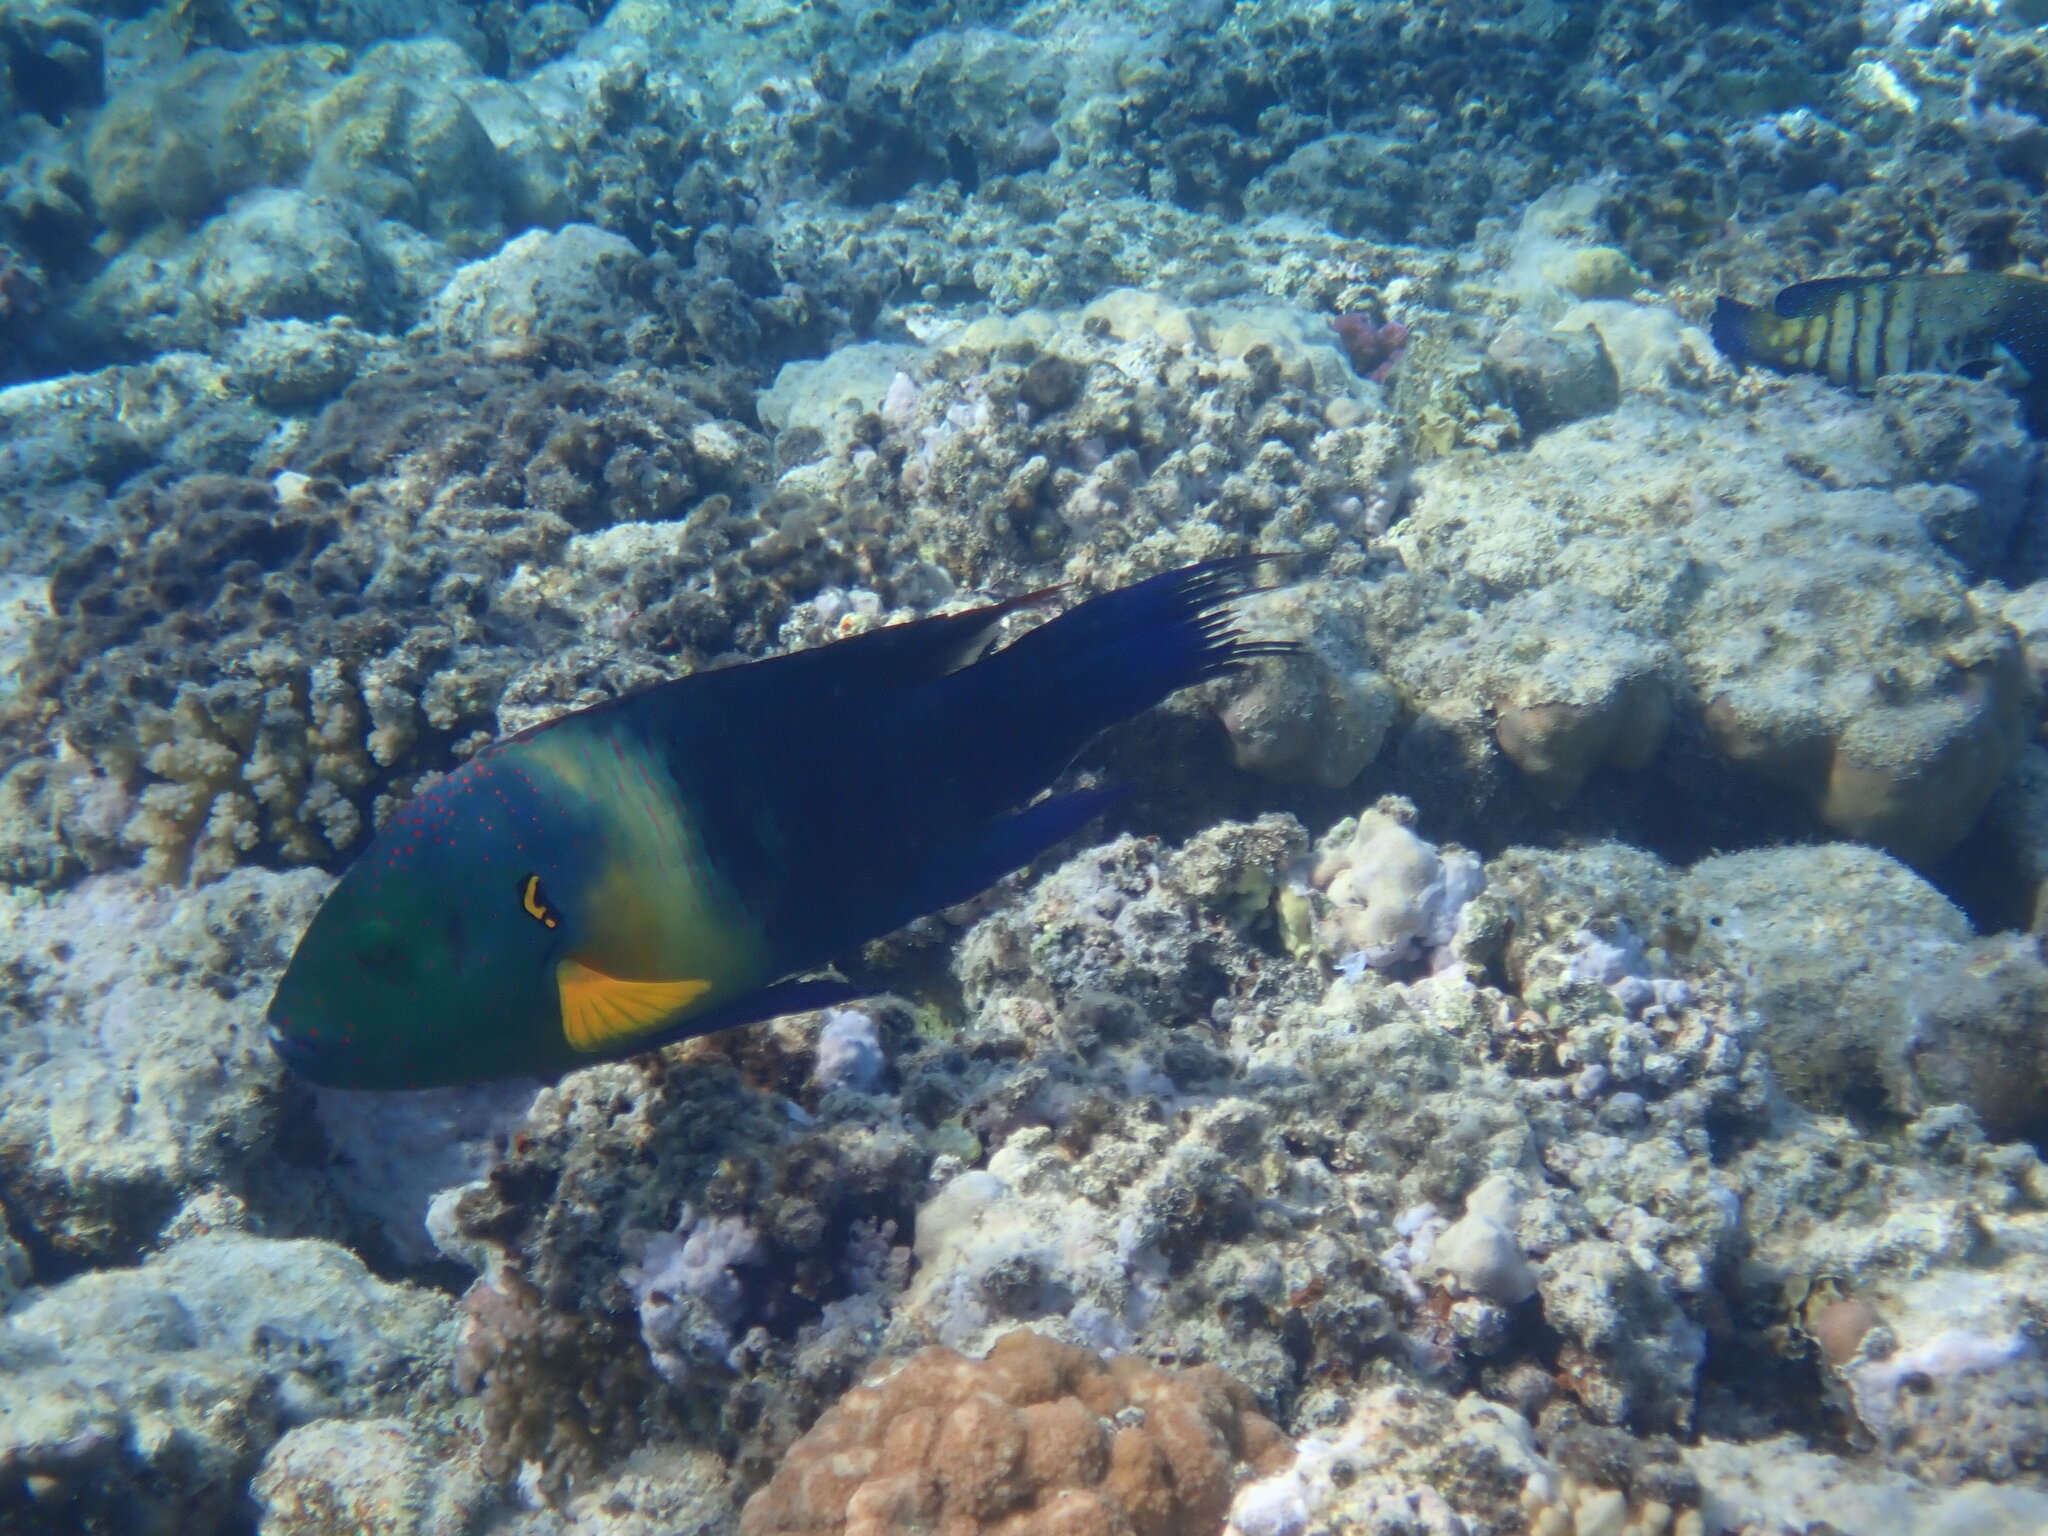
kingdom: Animalia
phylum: Chordata
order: Perciformes
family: Labridae
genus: Cheilinus
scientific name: Cheilinus lunulatus
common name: Broomtail wrasse
